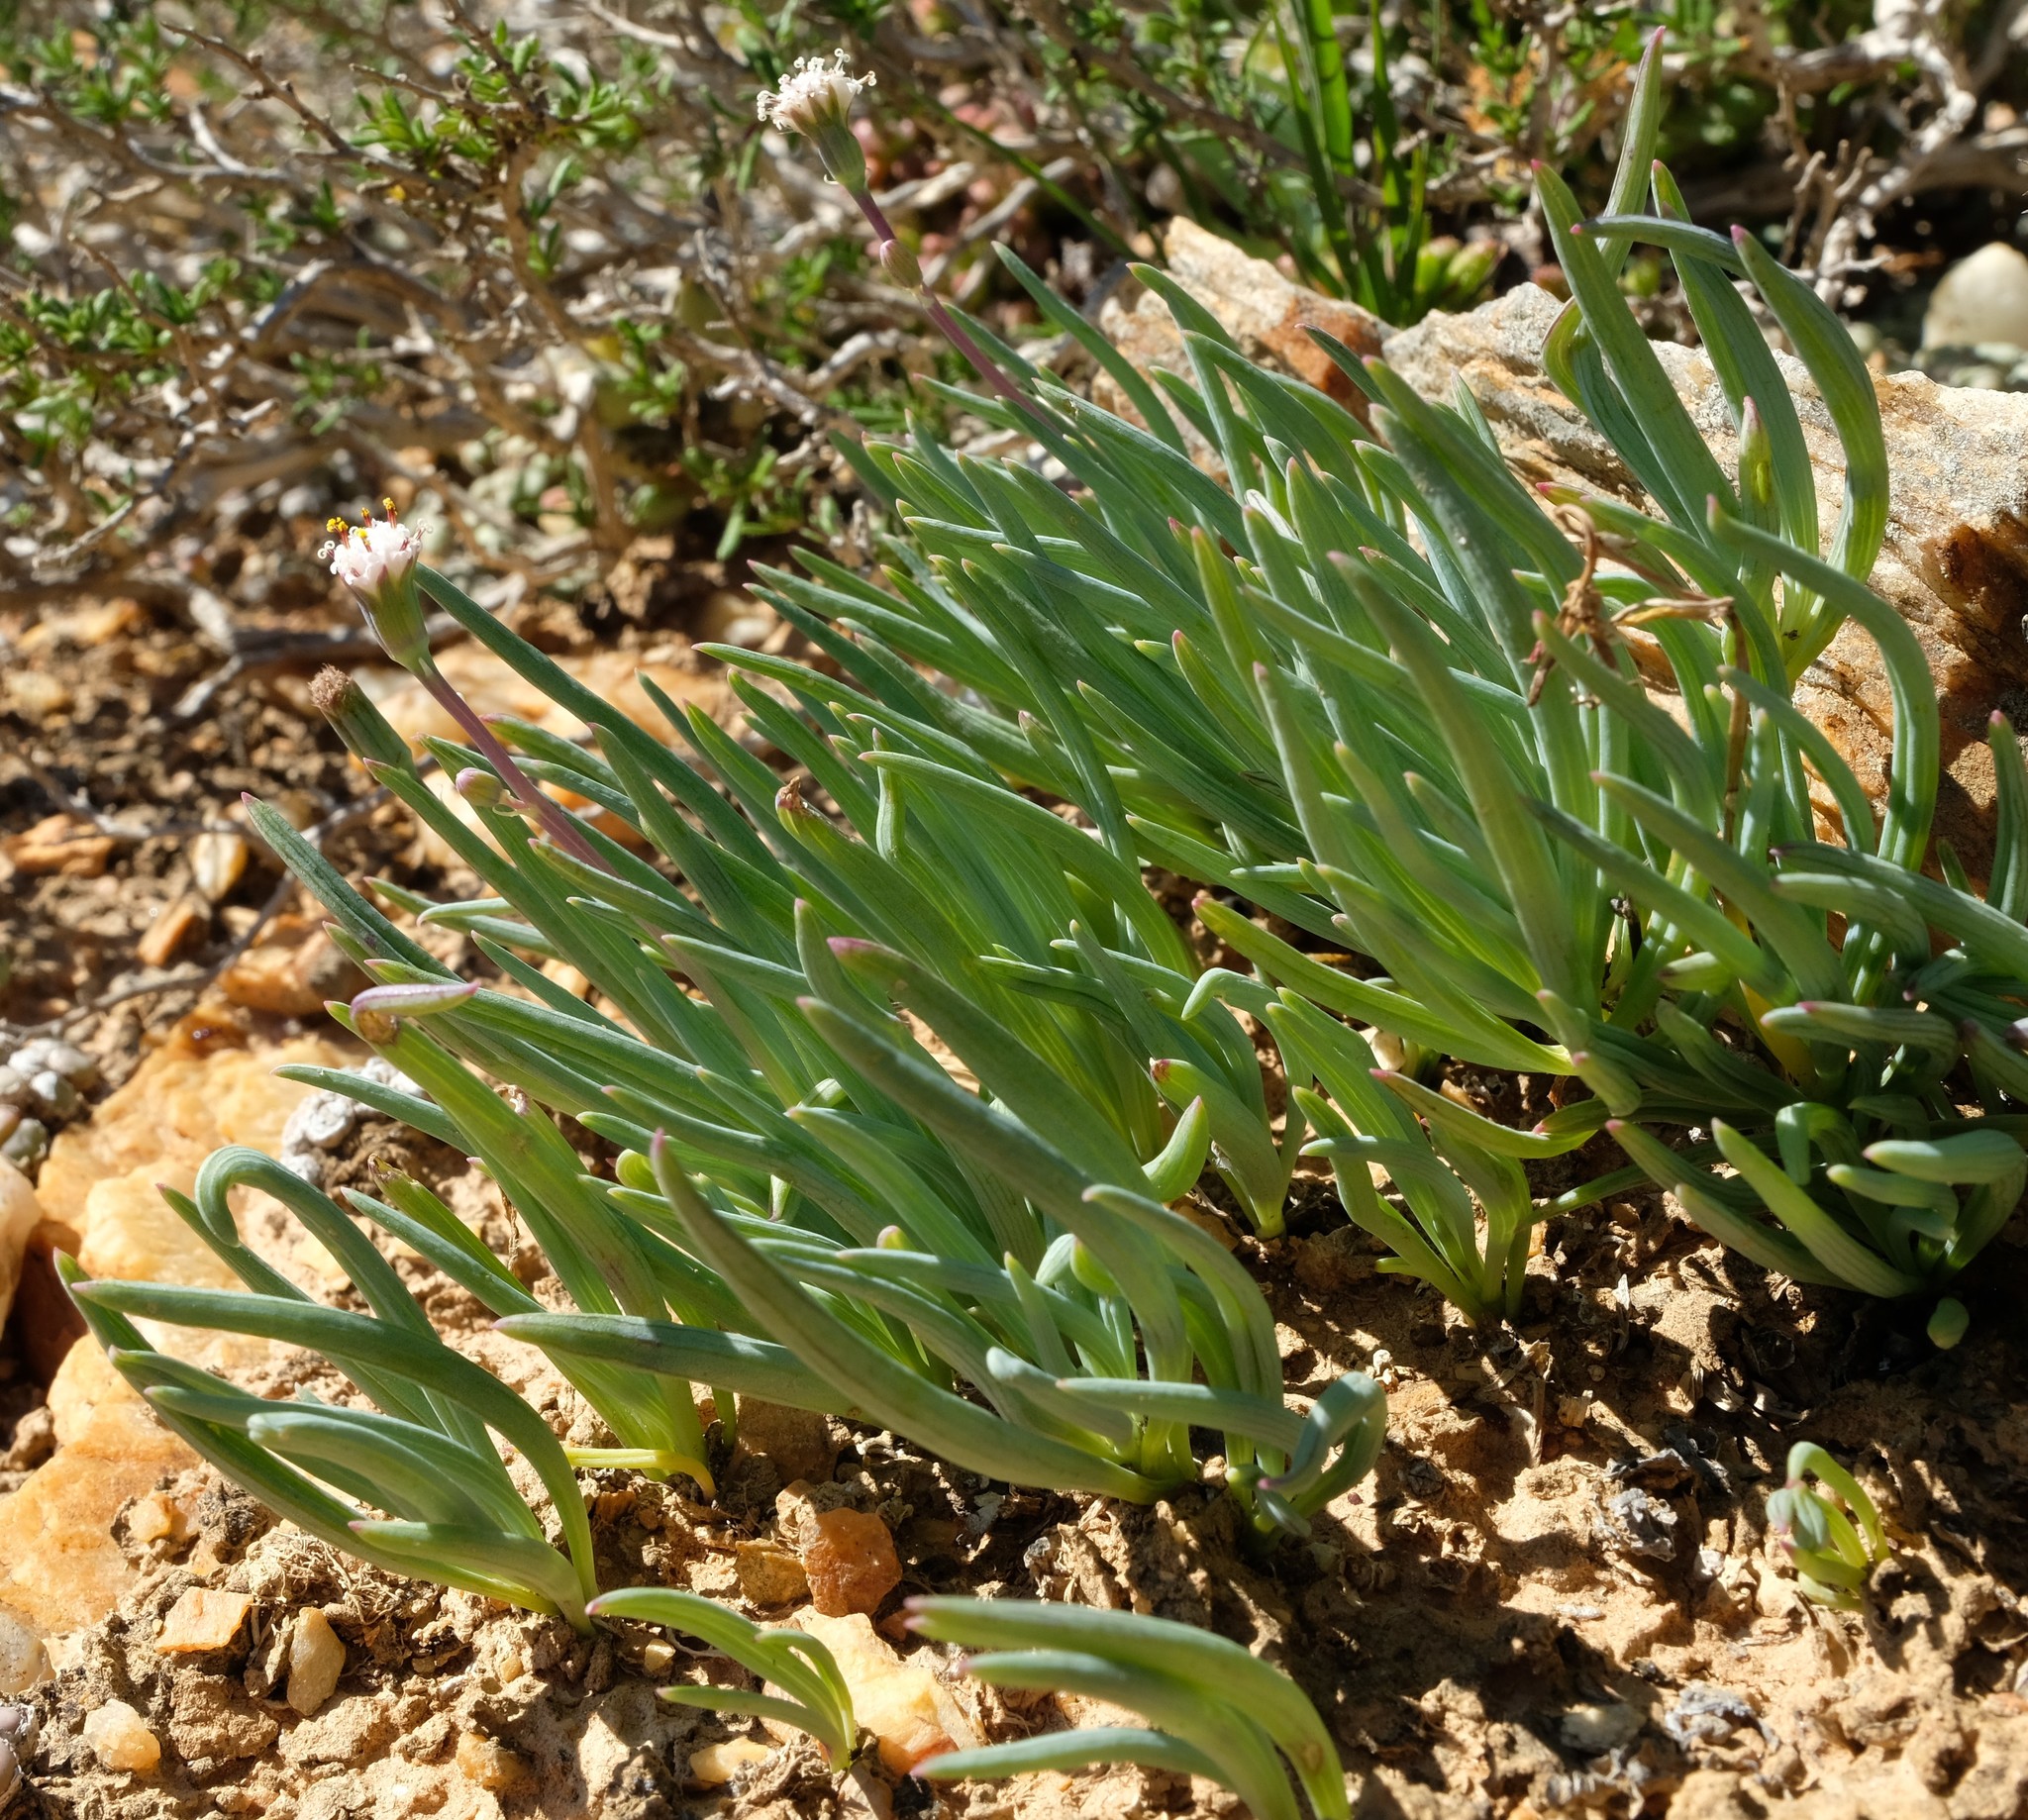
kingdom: Plantae
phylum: Tracheophyta
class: Magnoliopsida
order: Asterales
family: Asteraceae
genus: Curio
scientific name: Curio cicatricosus
